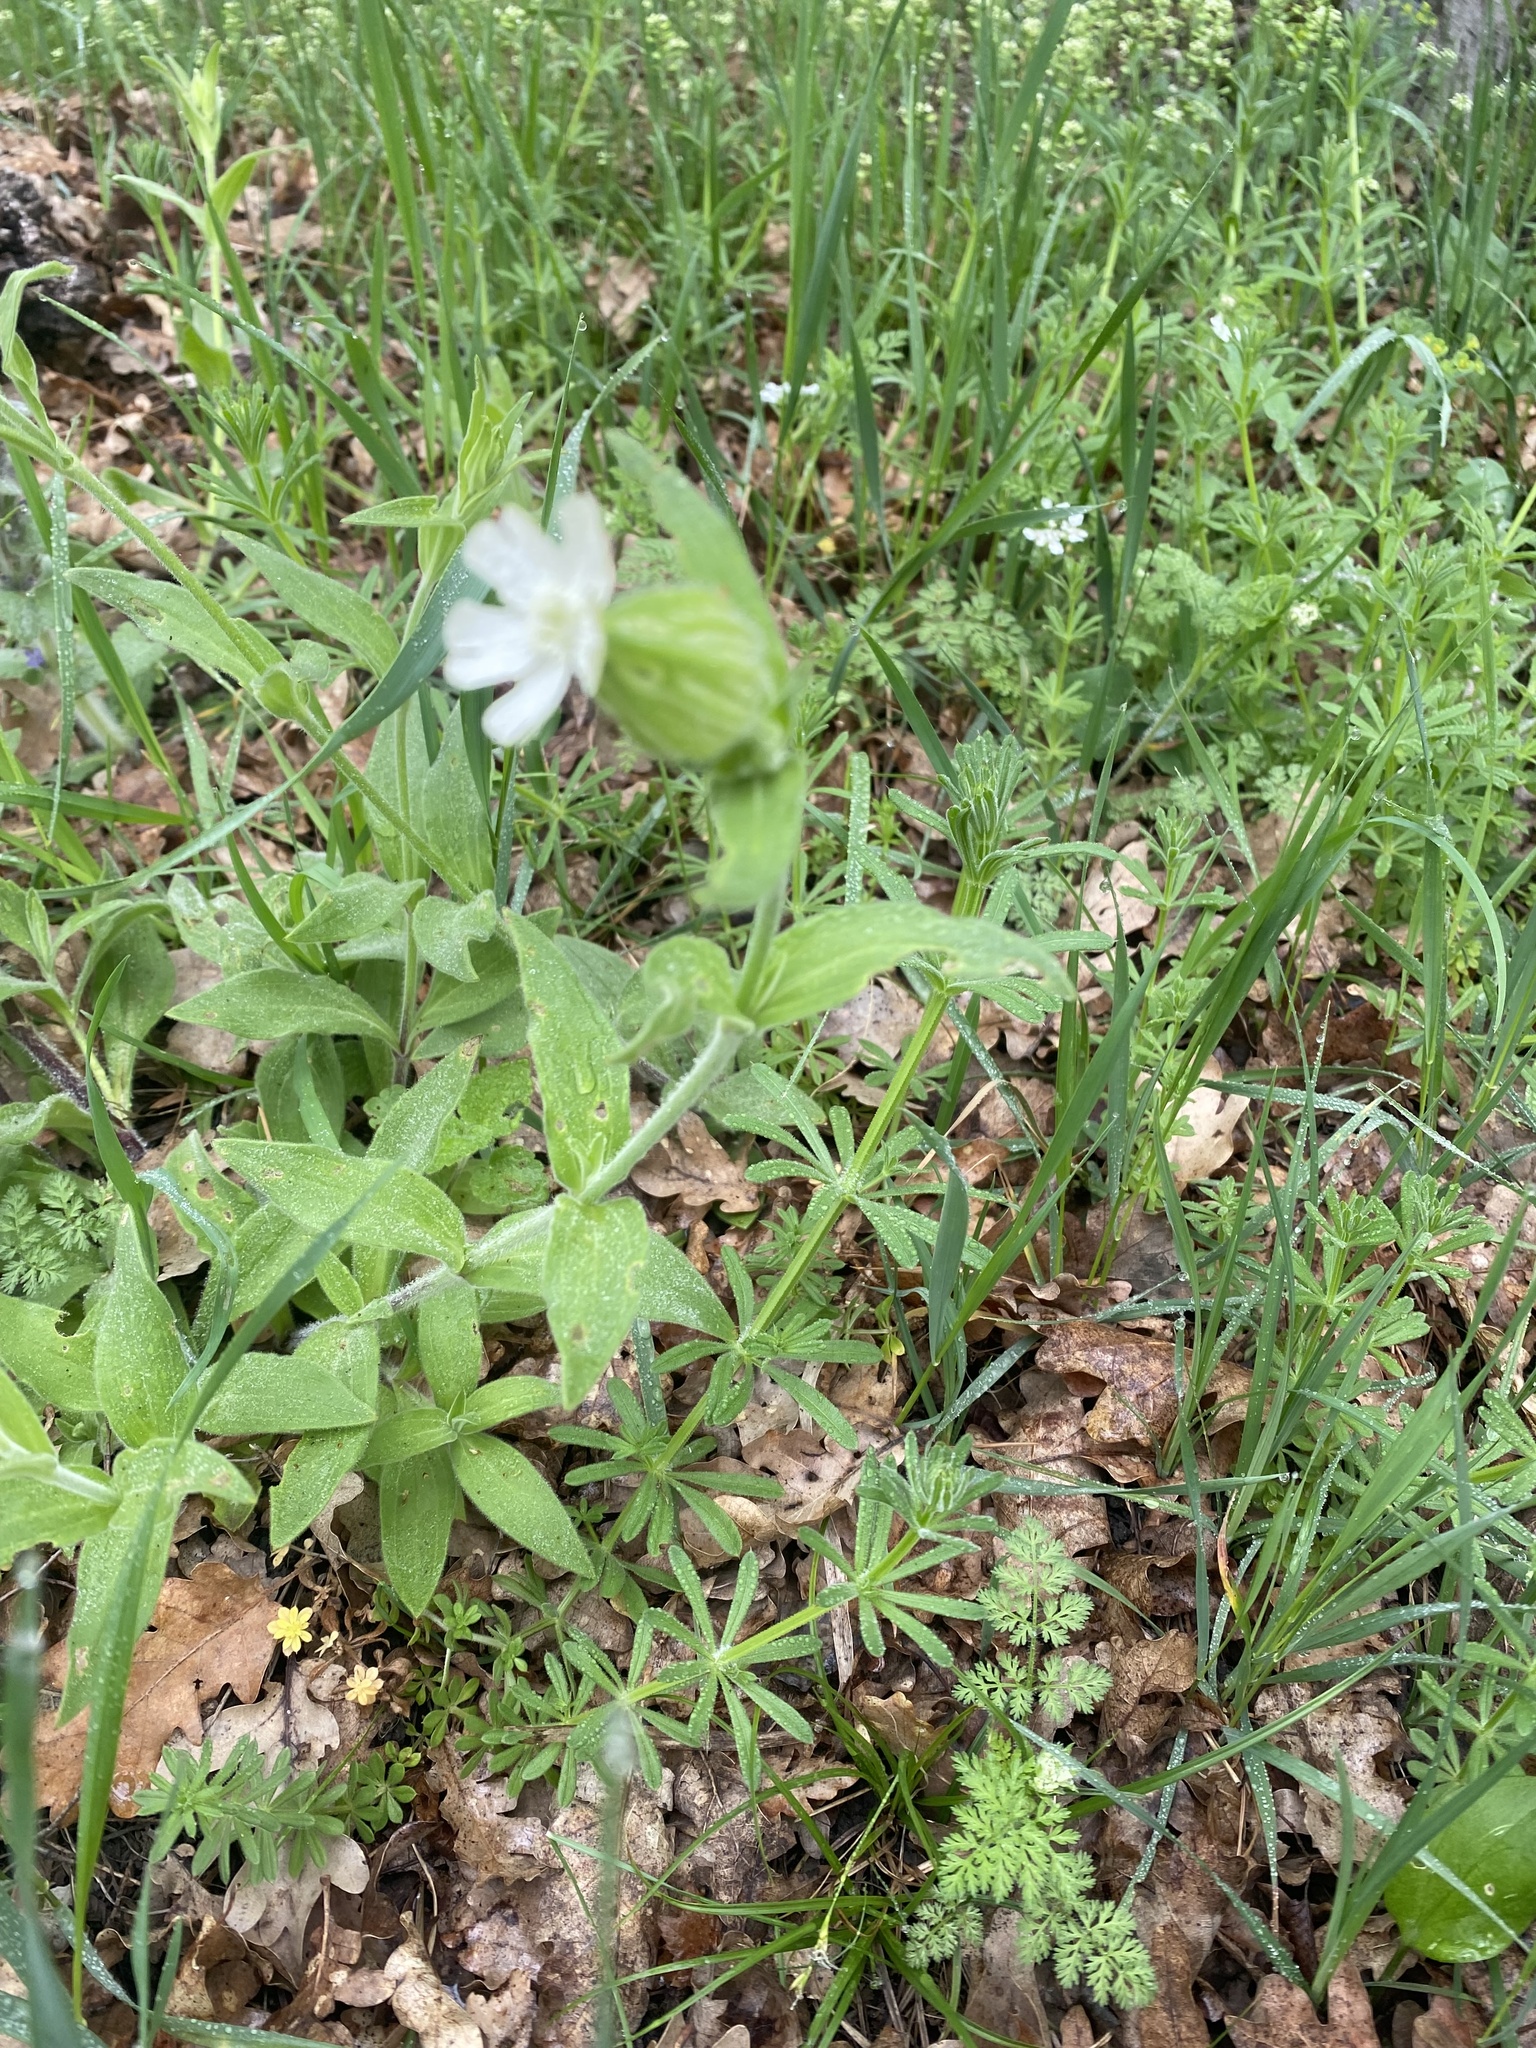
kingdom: Plantae
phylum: Tracheophyta
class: Magnoliopsida
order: Caryophyllales
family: Caryophyllaceae
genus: Silene
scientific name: Silene latifolia
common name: White campion
